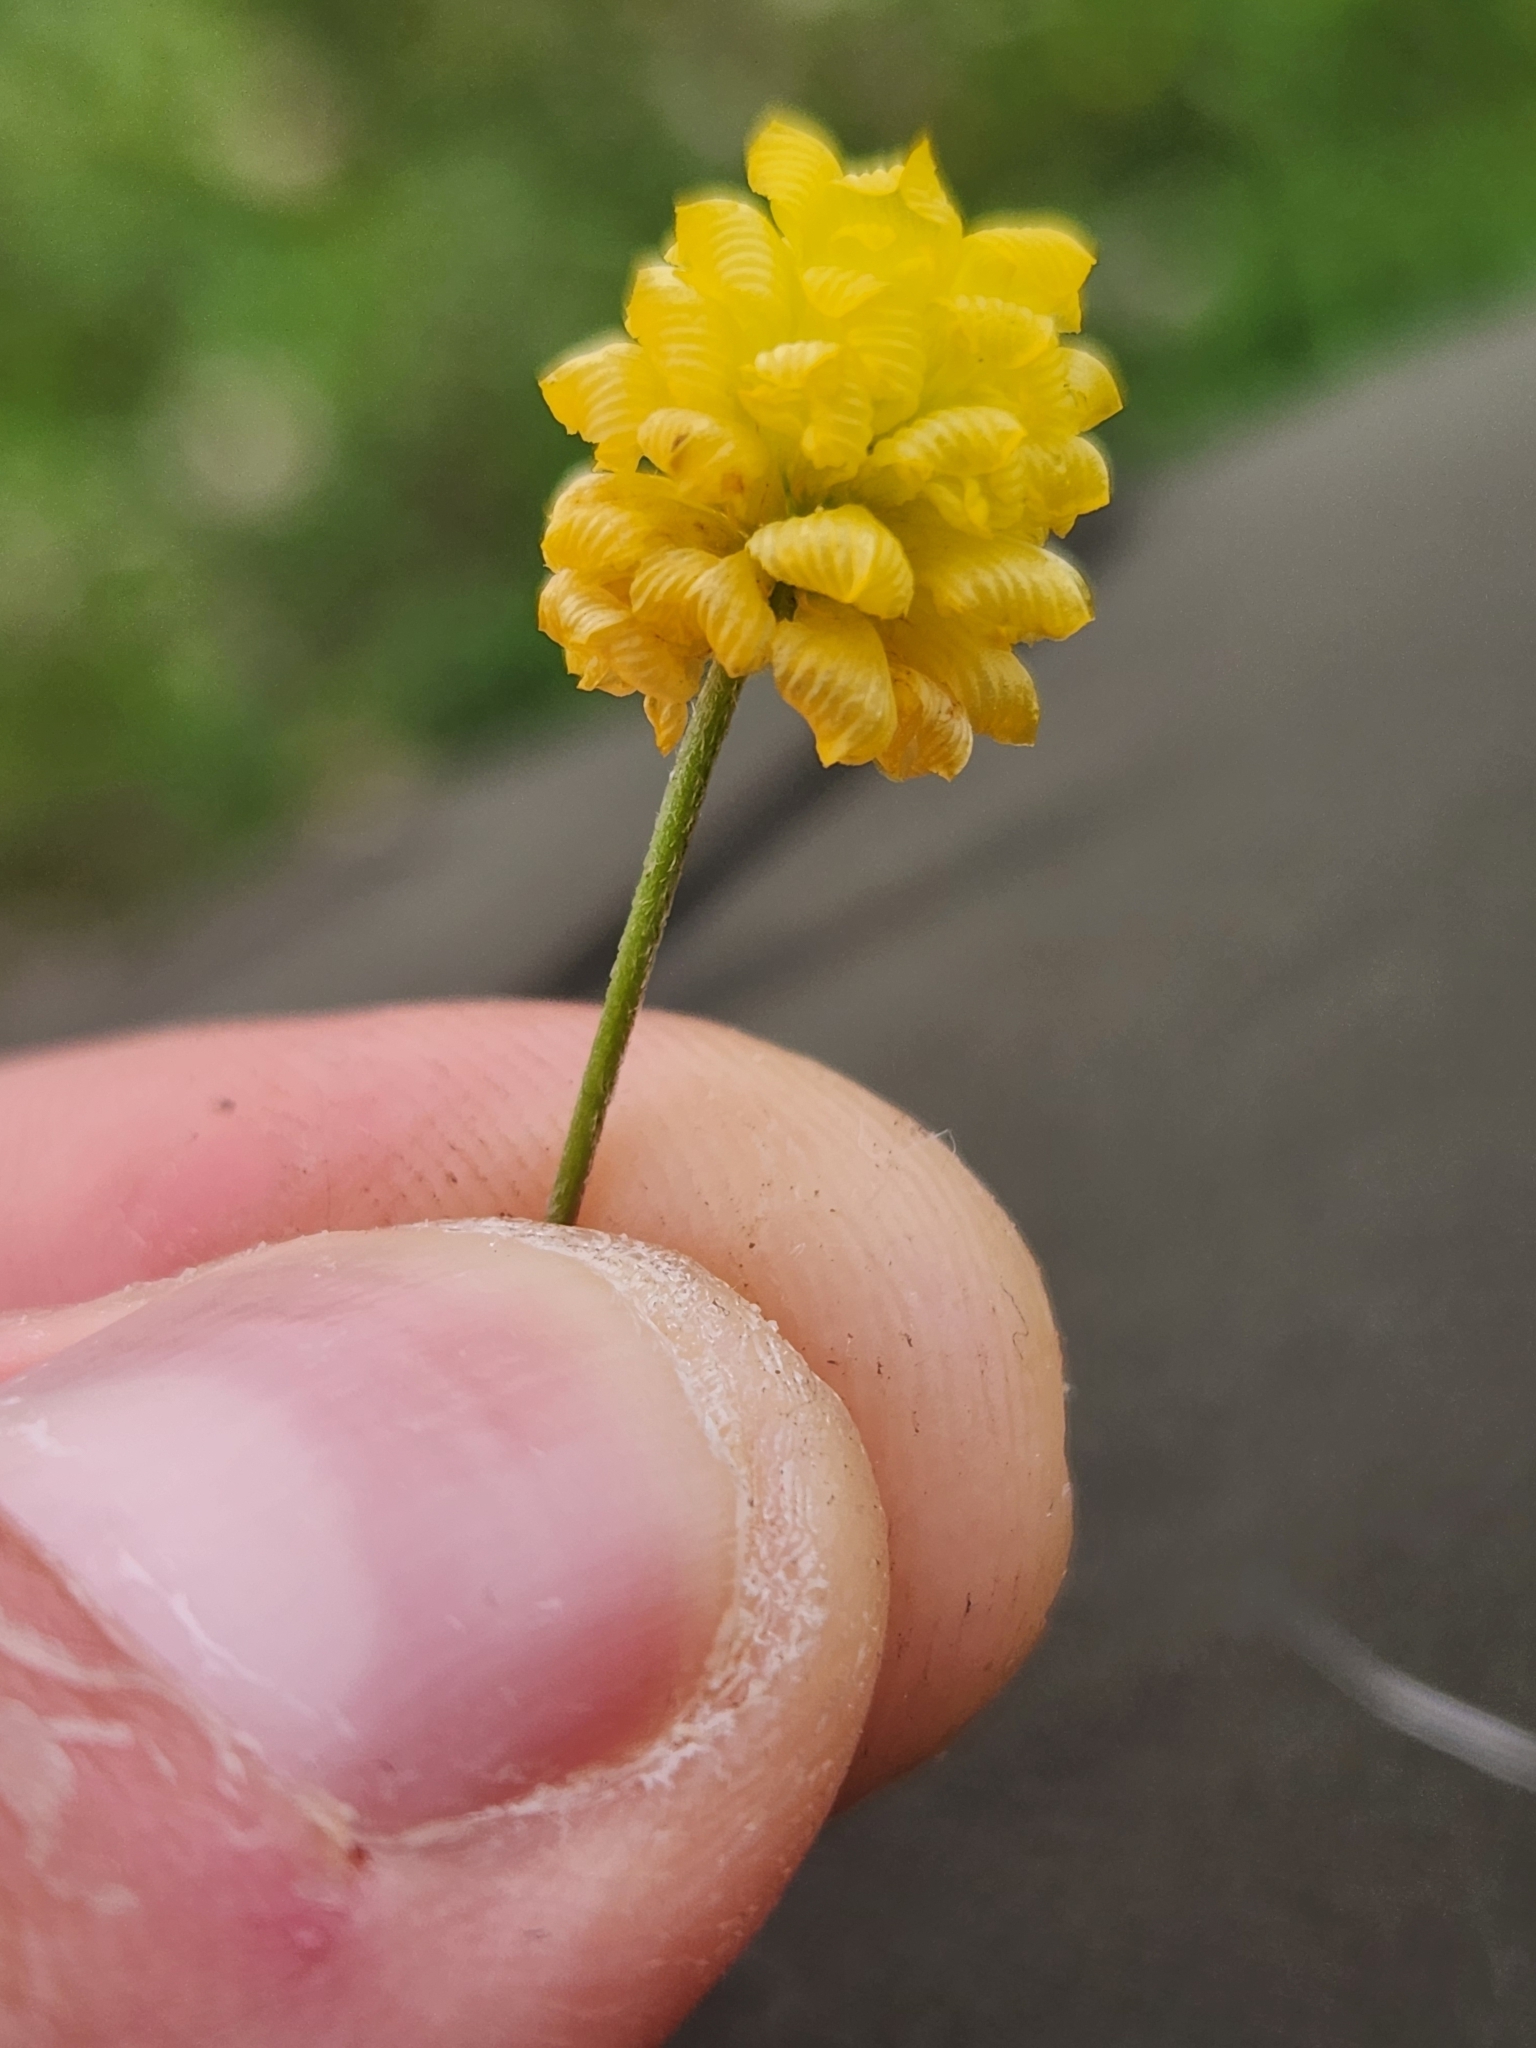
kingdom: Plantae
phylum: Tracheophyta
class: Magnoliopsida
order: Fabales
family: Fabaceae
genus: Trifolium
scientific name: Trifolium campestre
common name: Field clover
